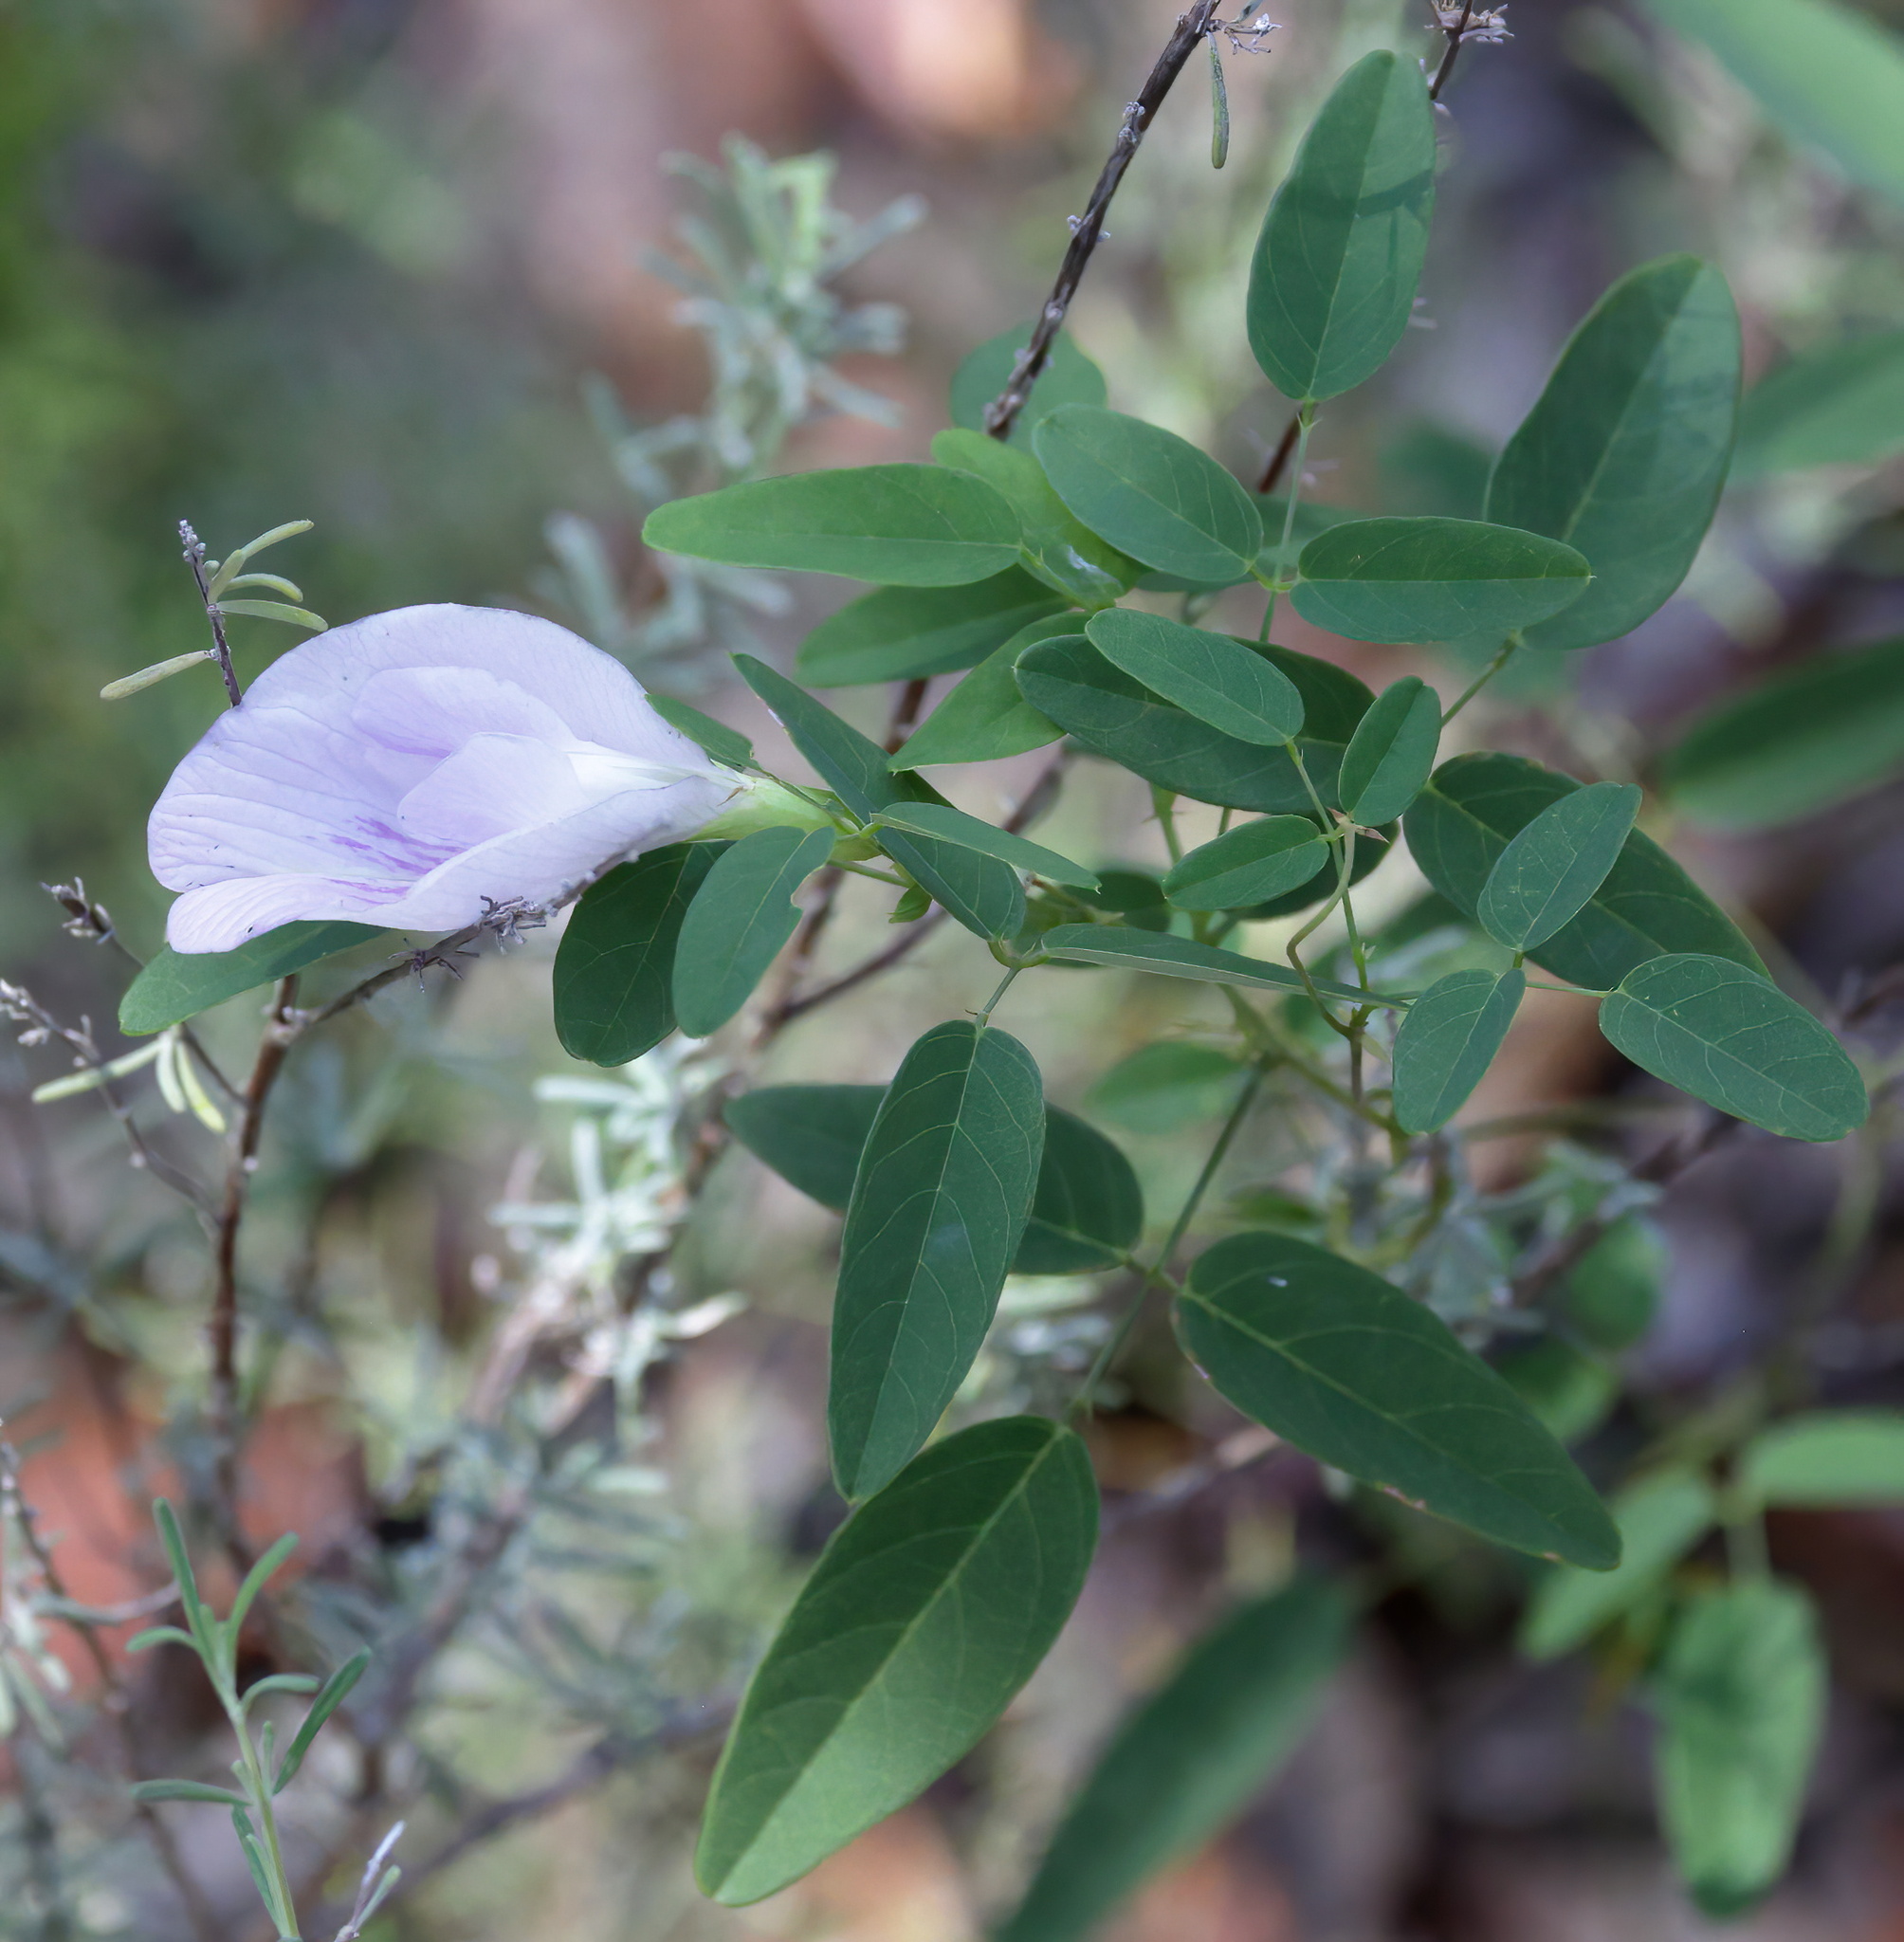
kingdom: Plantae
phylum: Tracheophyta
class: Magnoliopsida
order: Fabales
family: Fabaceae
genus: Clitoria
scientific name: Clitoria mariana
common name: Butterfly-pea
